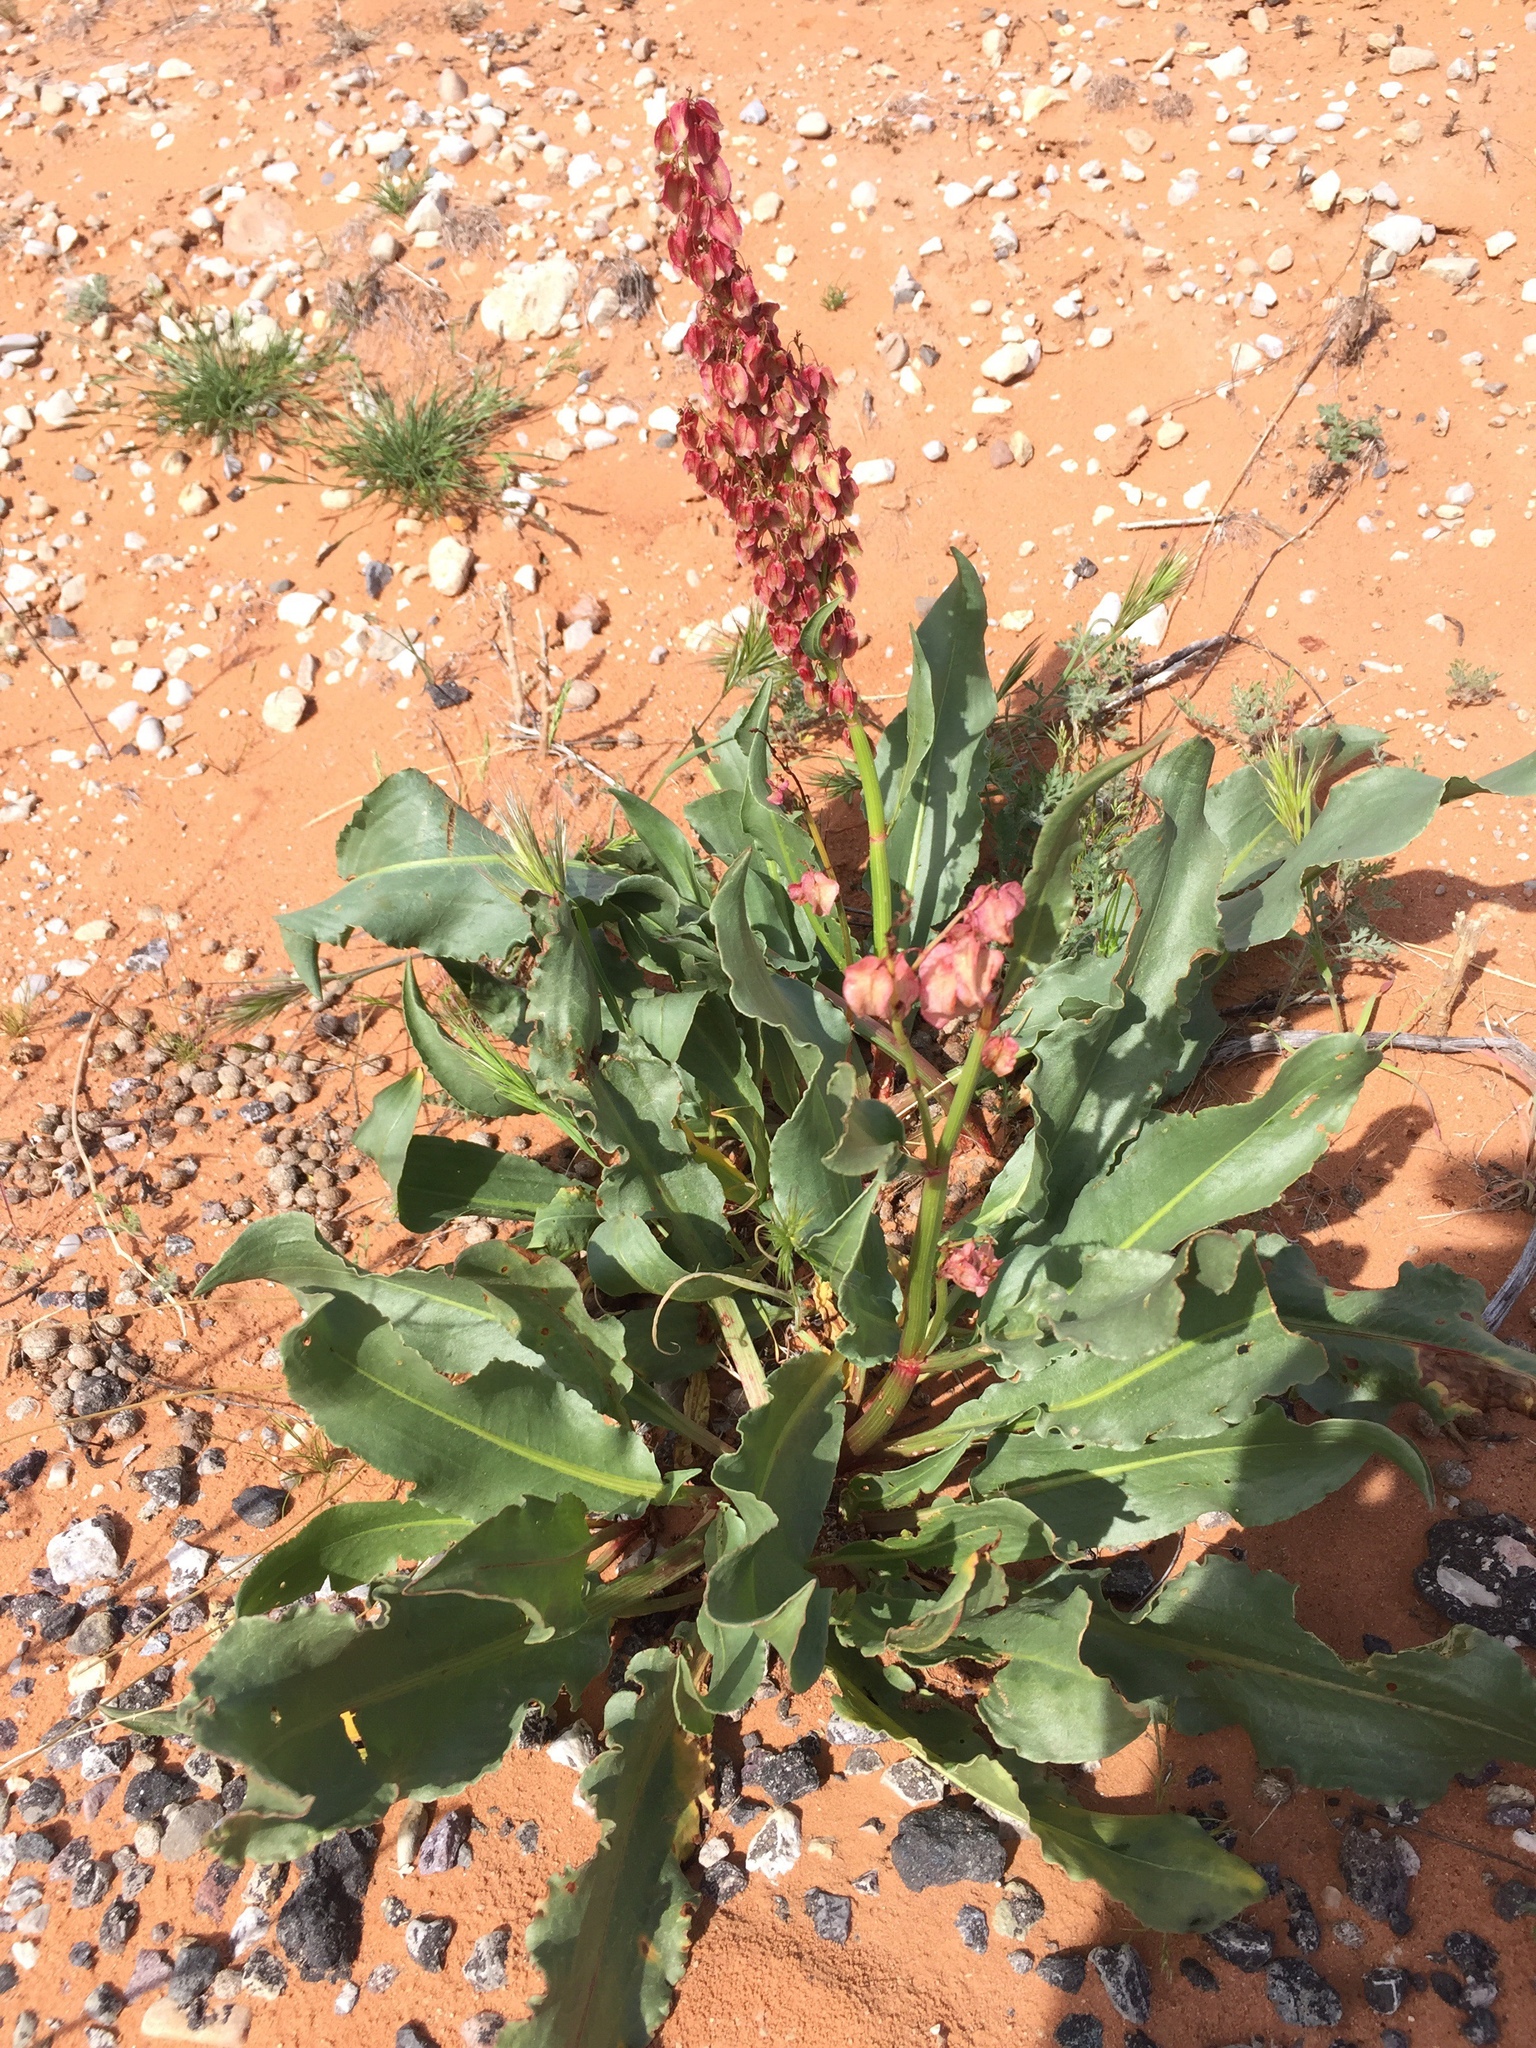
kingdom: Plantae
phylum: Tracheophyta
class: Magnoliopsida
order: Caryophyllales
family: Polygonaceae
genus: Rumex
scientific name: Rumex hymenosepalus
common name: Ganagra
